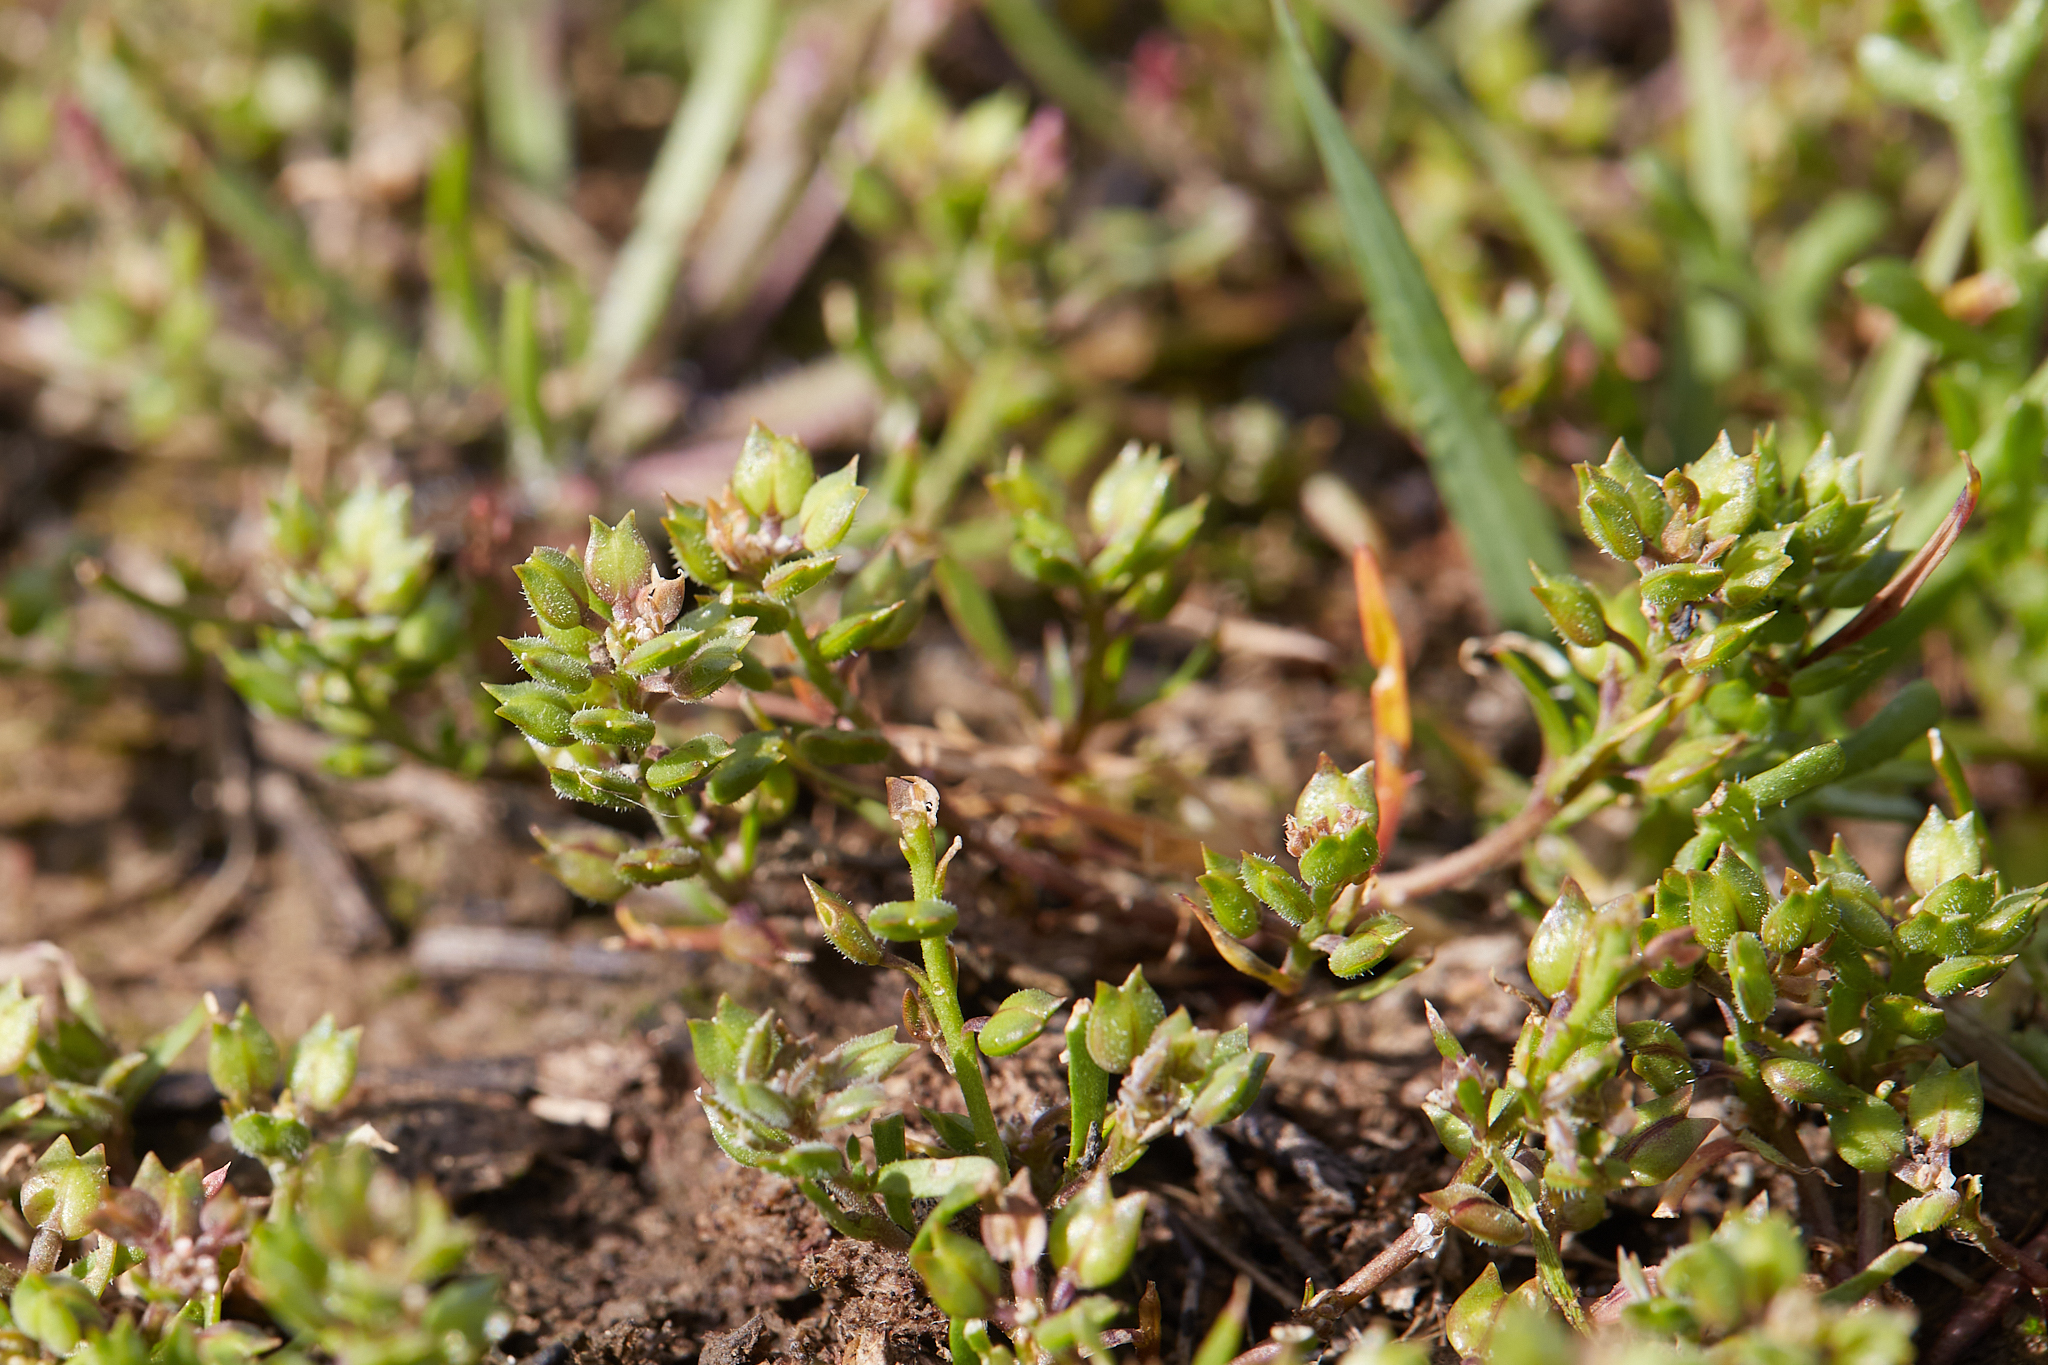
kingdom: Plantae
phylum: Tracheophyta
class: Magnoliopsida
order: Brassicales
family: Brassicaceae
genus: Lepidium
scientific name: Lepidium dictyotum
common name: Alkali pepperwort
